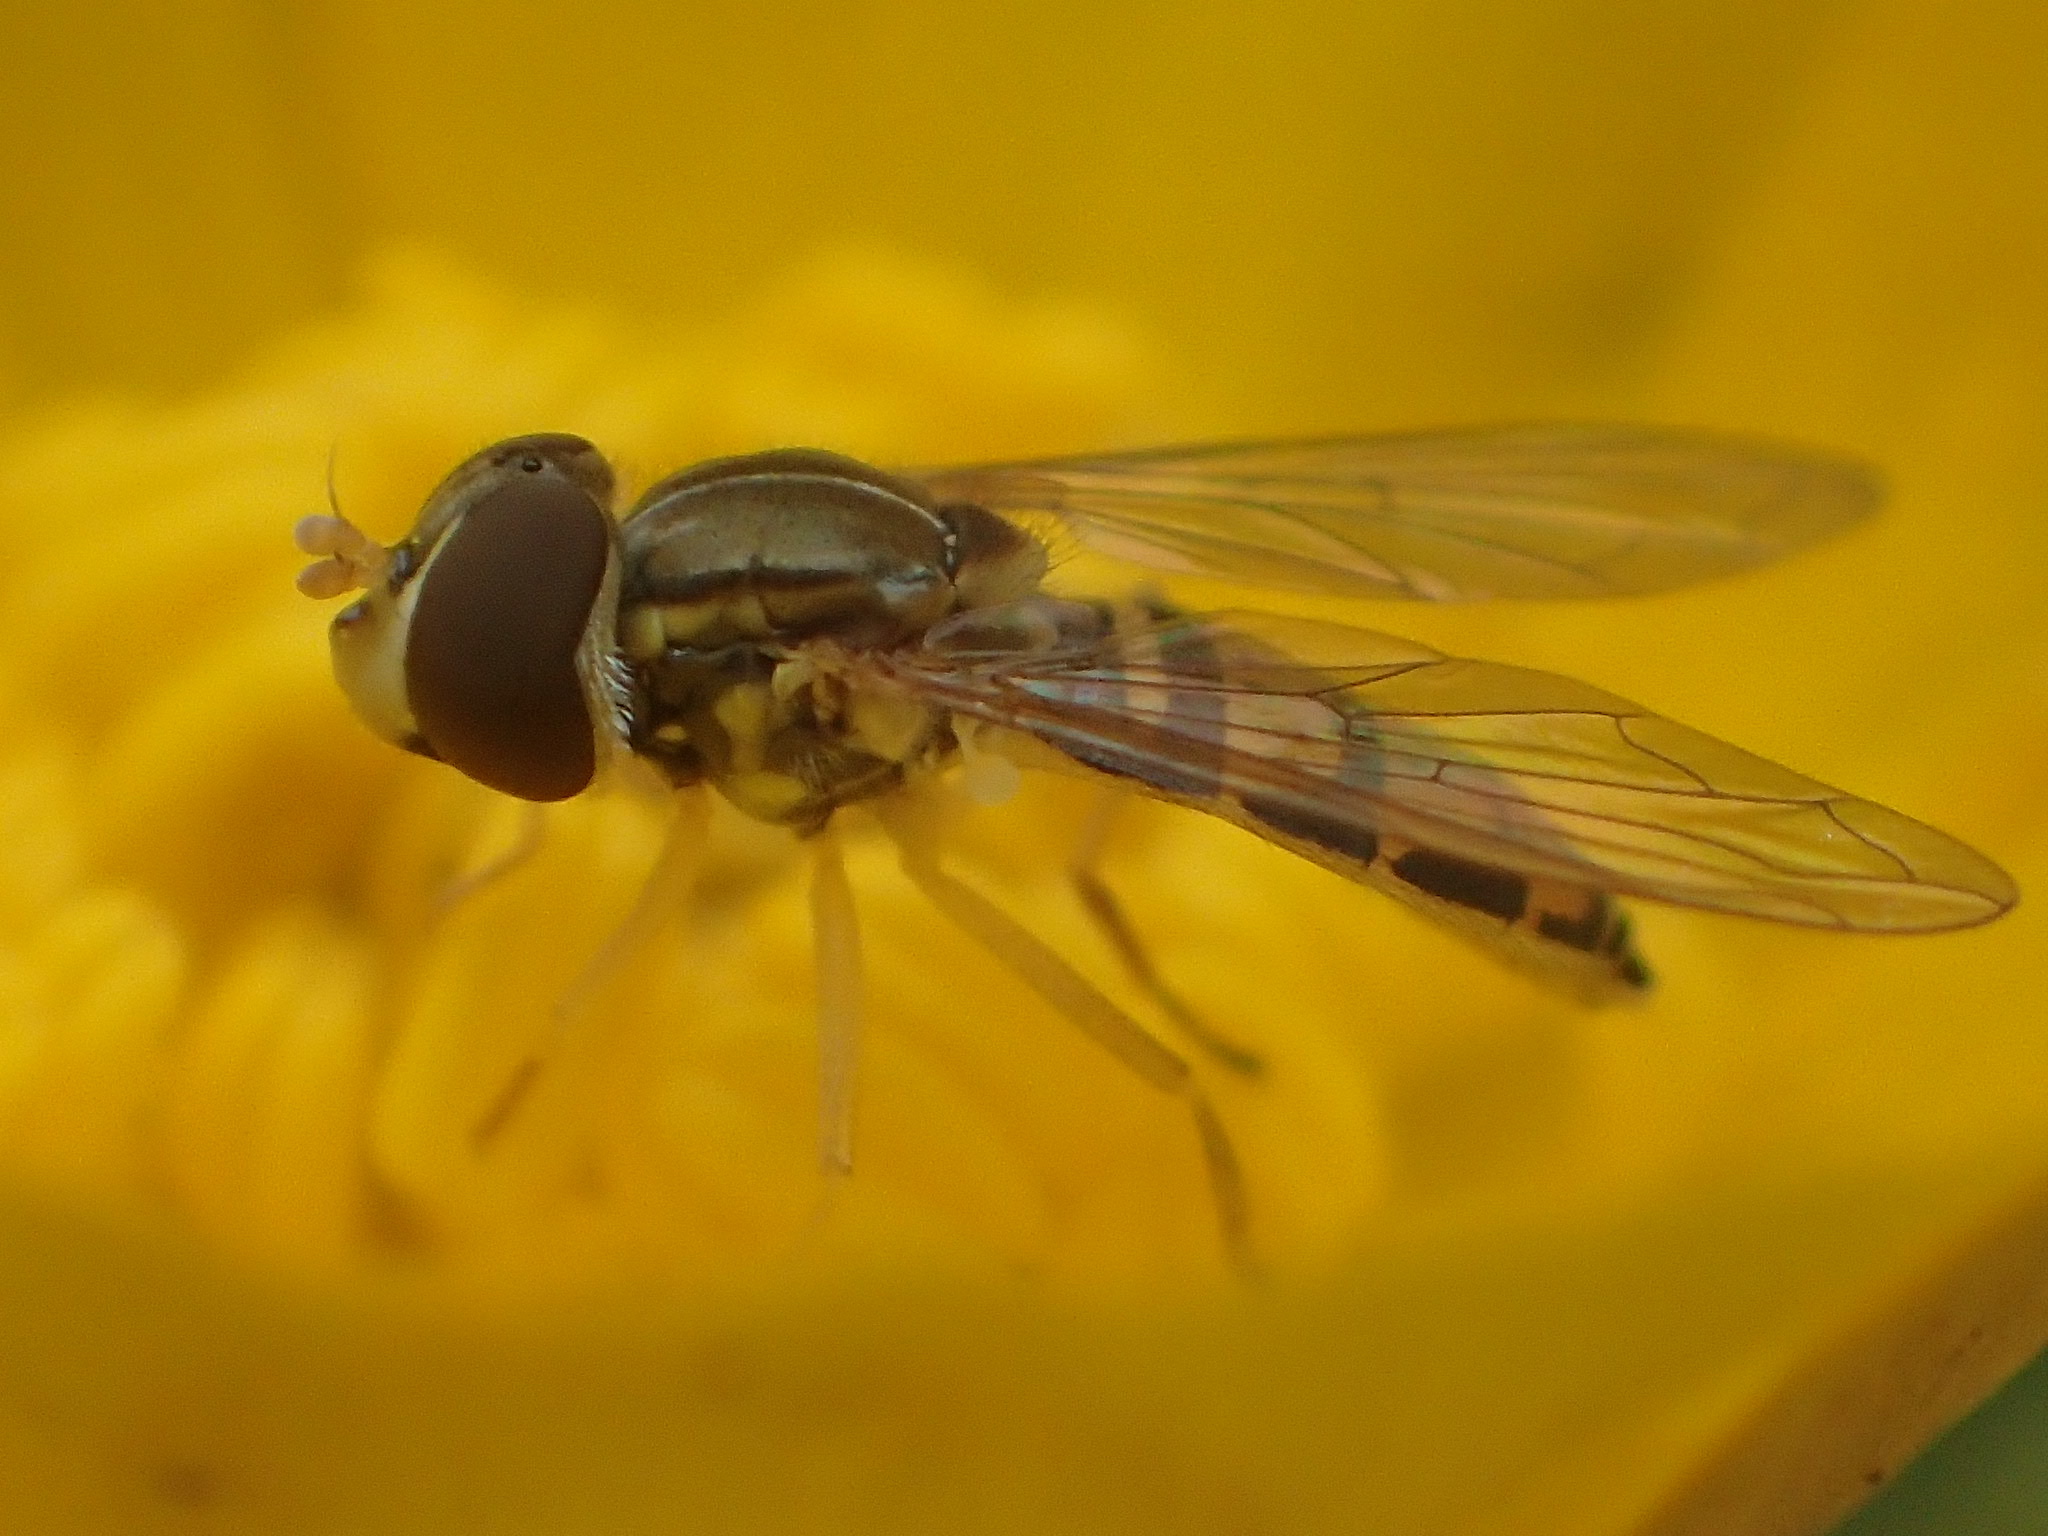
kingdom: Animalia
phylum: Arthropoda
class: Insecta
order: Diptera
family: Syrphidae
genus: Toxomerus
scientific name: Toxomerus marginatus
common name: Syrphid fly
